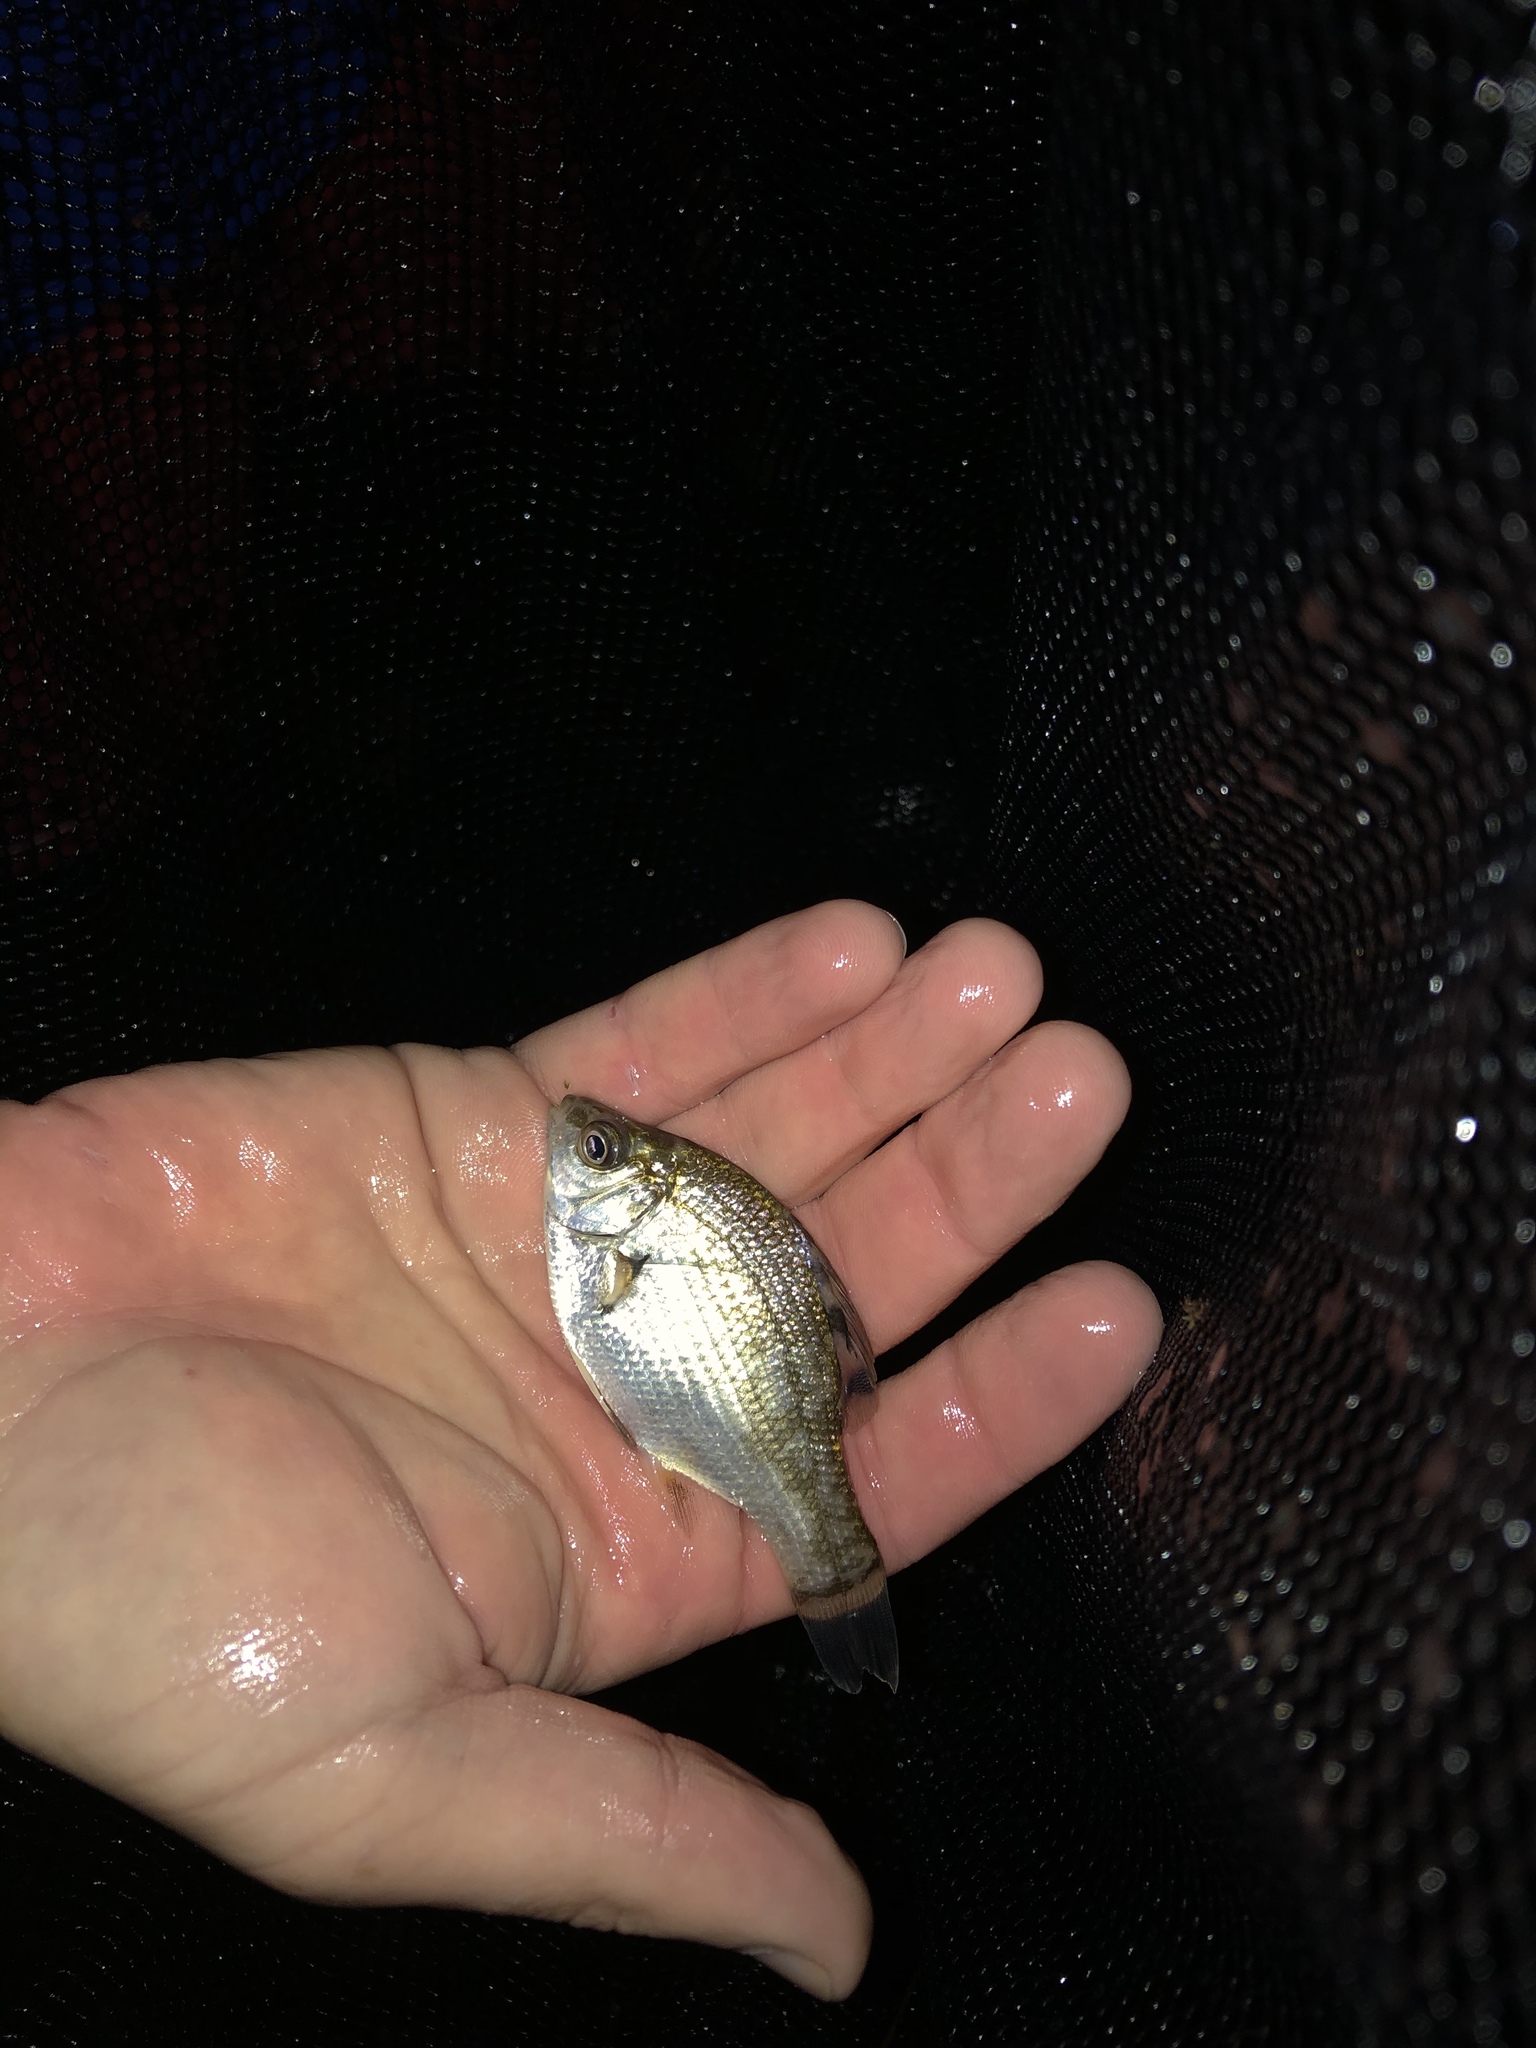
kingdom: Animalia
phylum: Chordata
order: Perciformes
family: Embiotocidae
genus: Micrometrus
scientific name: Micrometrus minimus
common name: Dwarf perch
